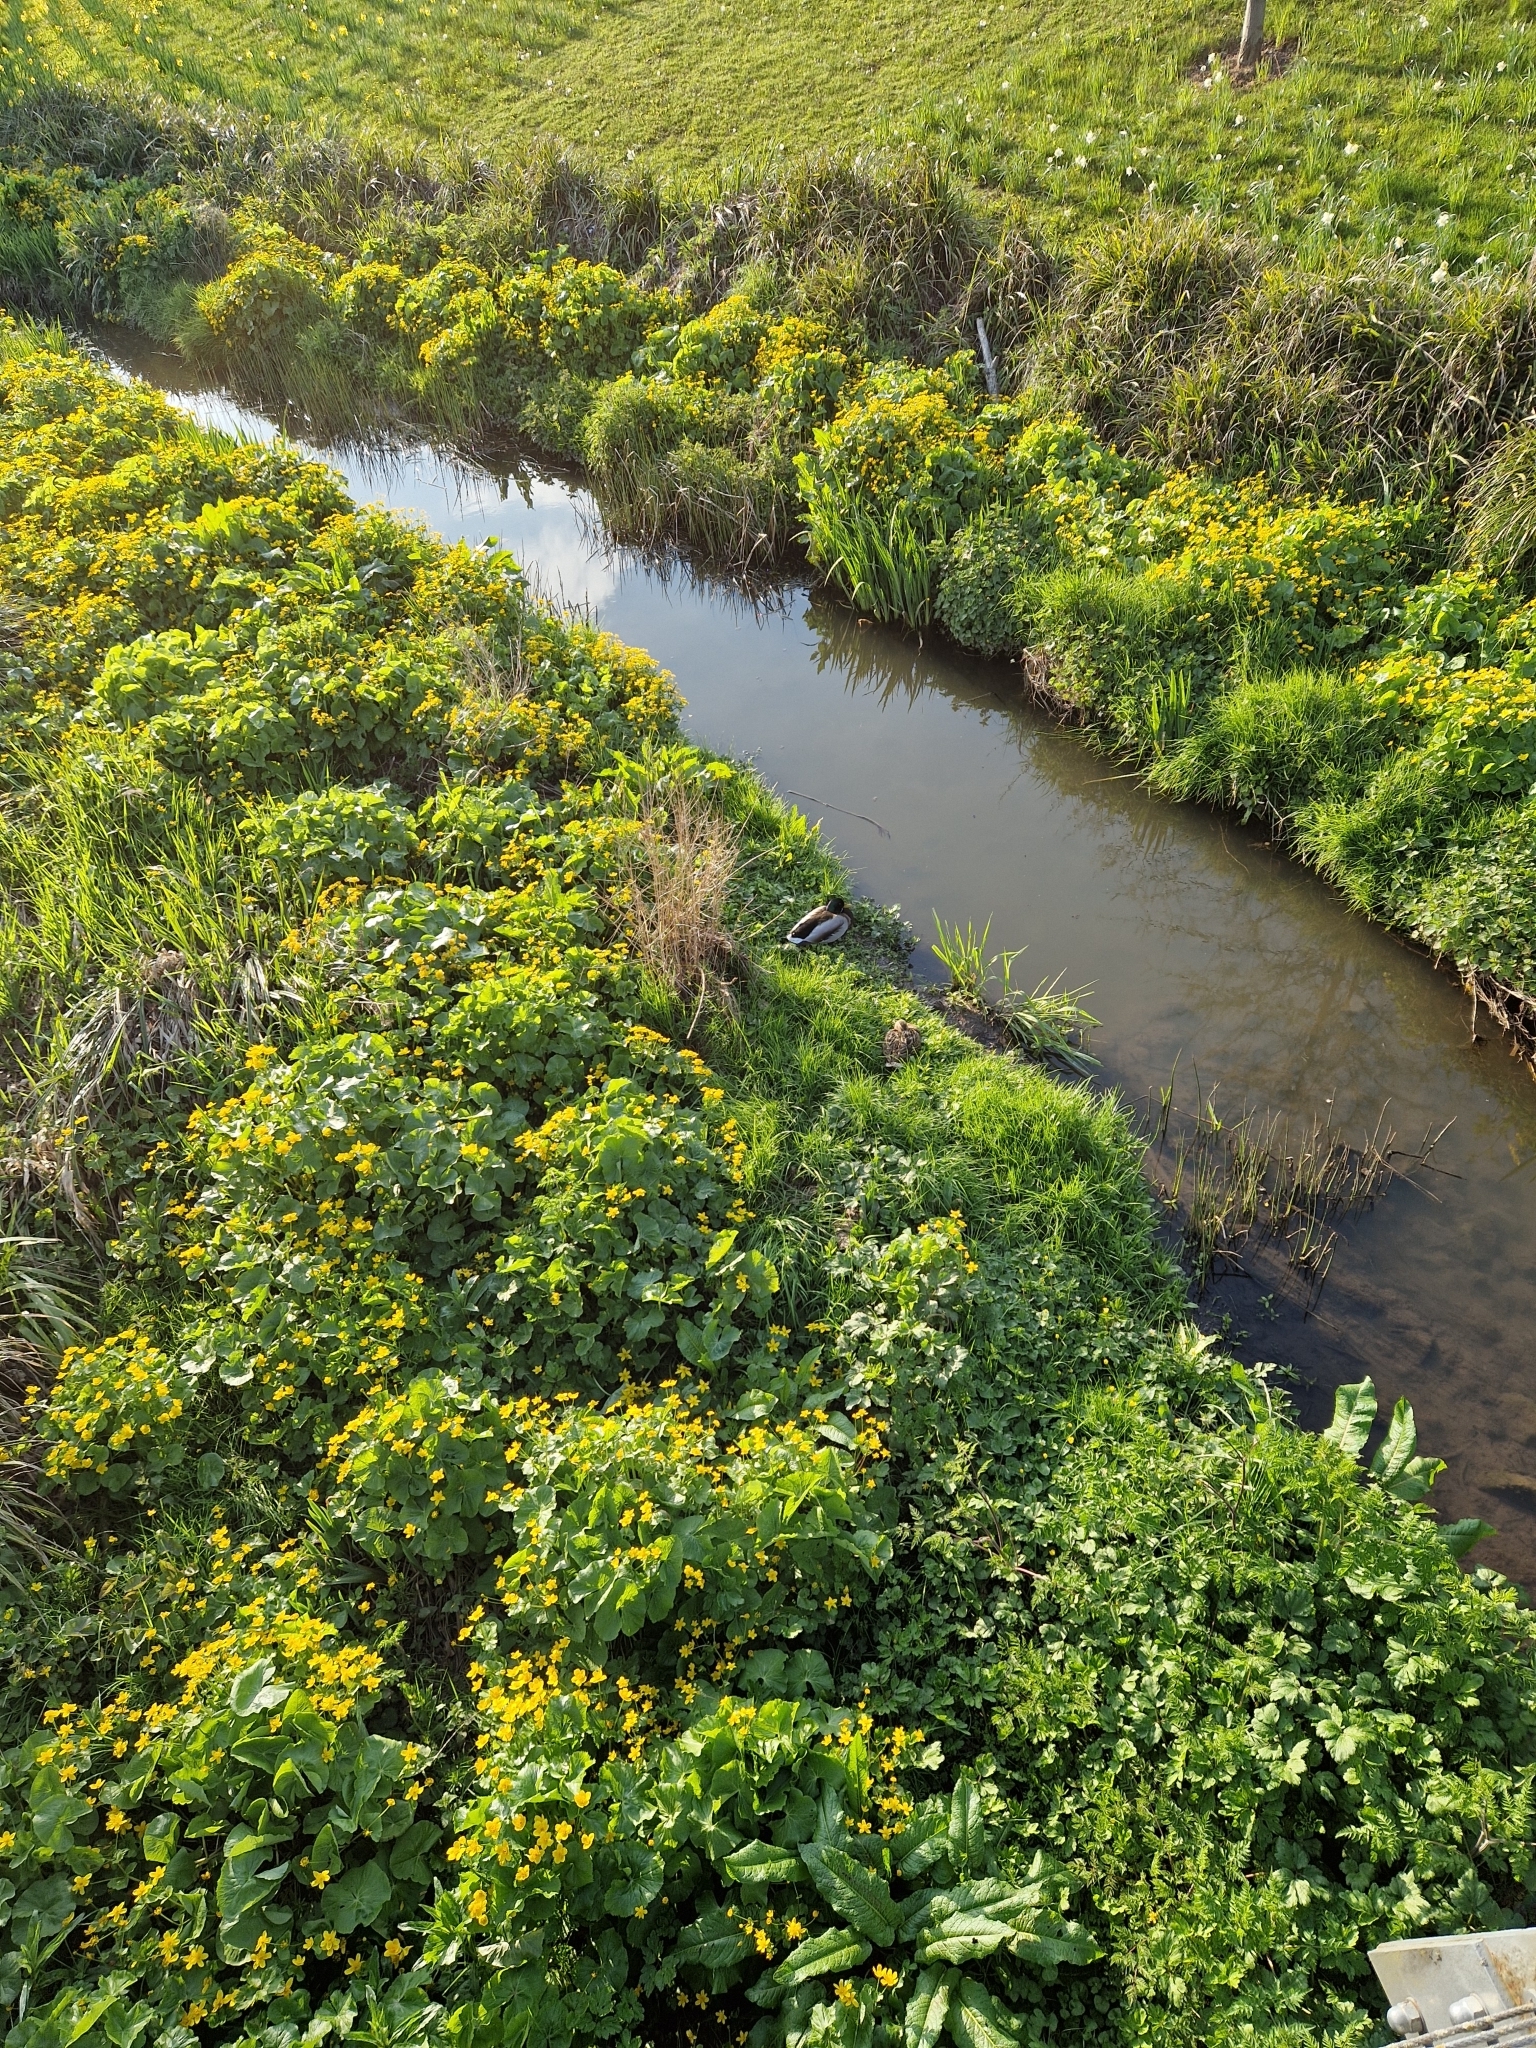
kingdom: Animalia
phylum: Chordata
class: Aves
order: Anseriformes
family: Anatidae
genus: Anas
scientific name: Anas platyrhynchos
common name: Mallard
